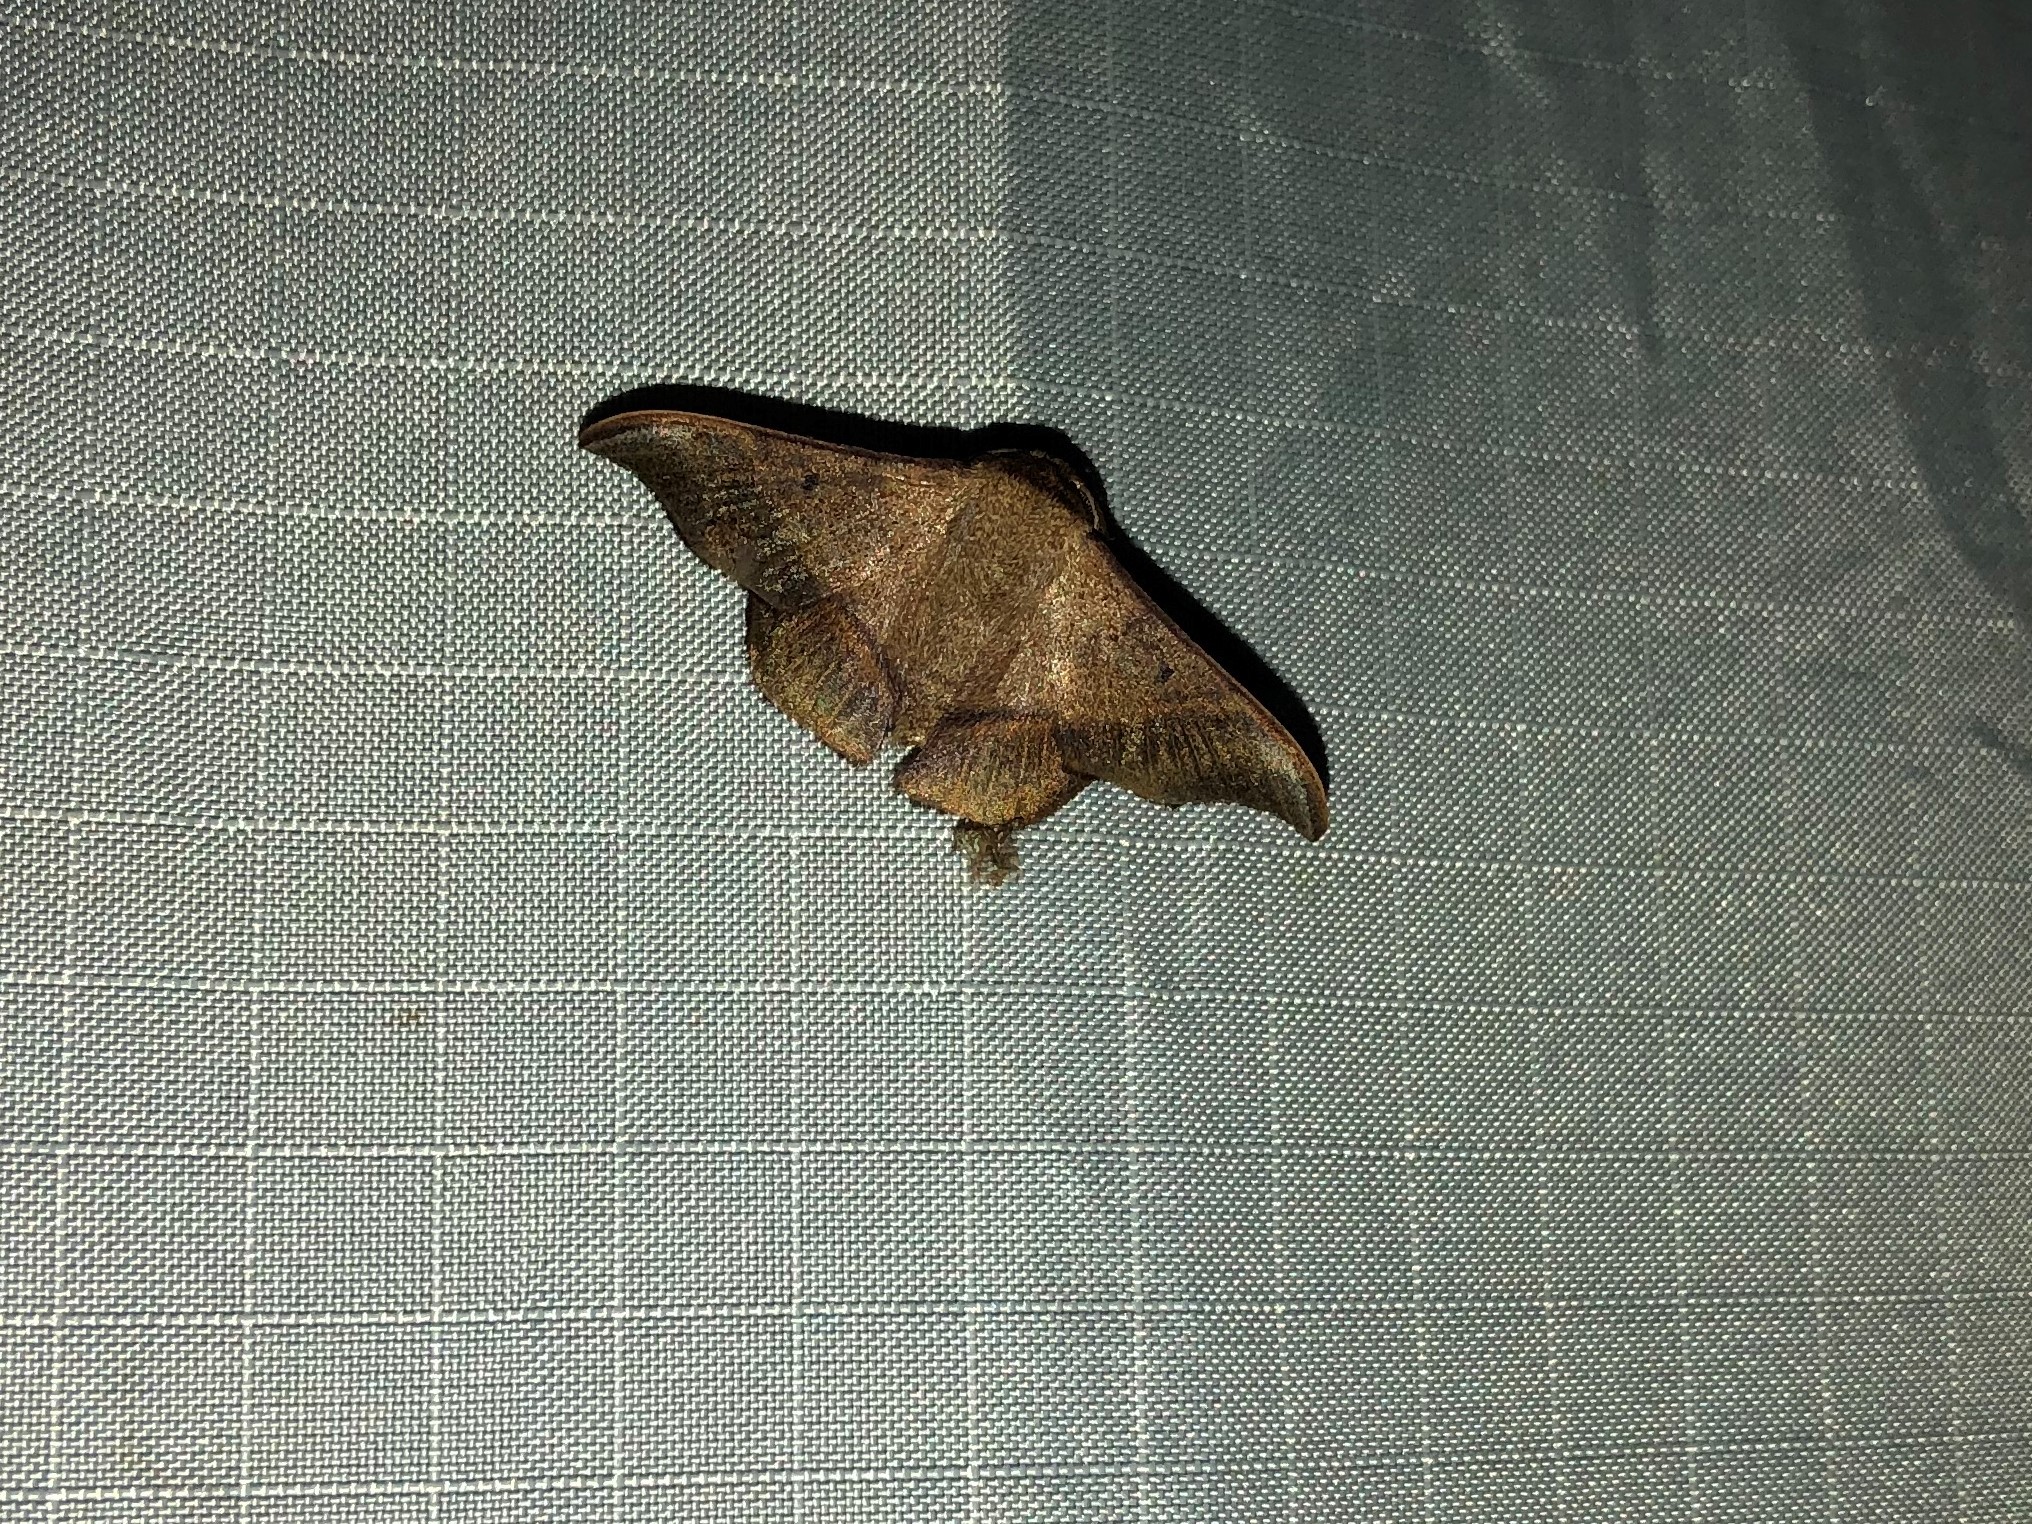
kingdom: Animalia
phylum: Arthropoda
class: Insecta
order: Lepidoptera
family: Mimallonidae
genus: Alheita
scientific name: Alheita pulla
